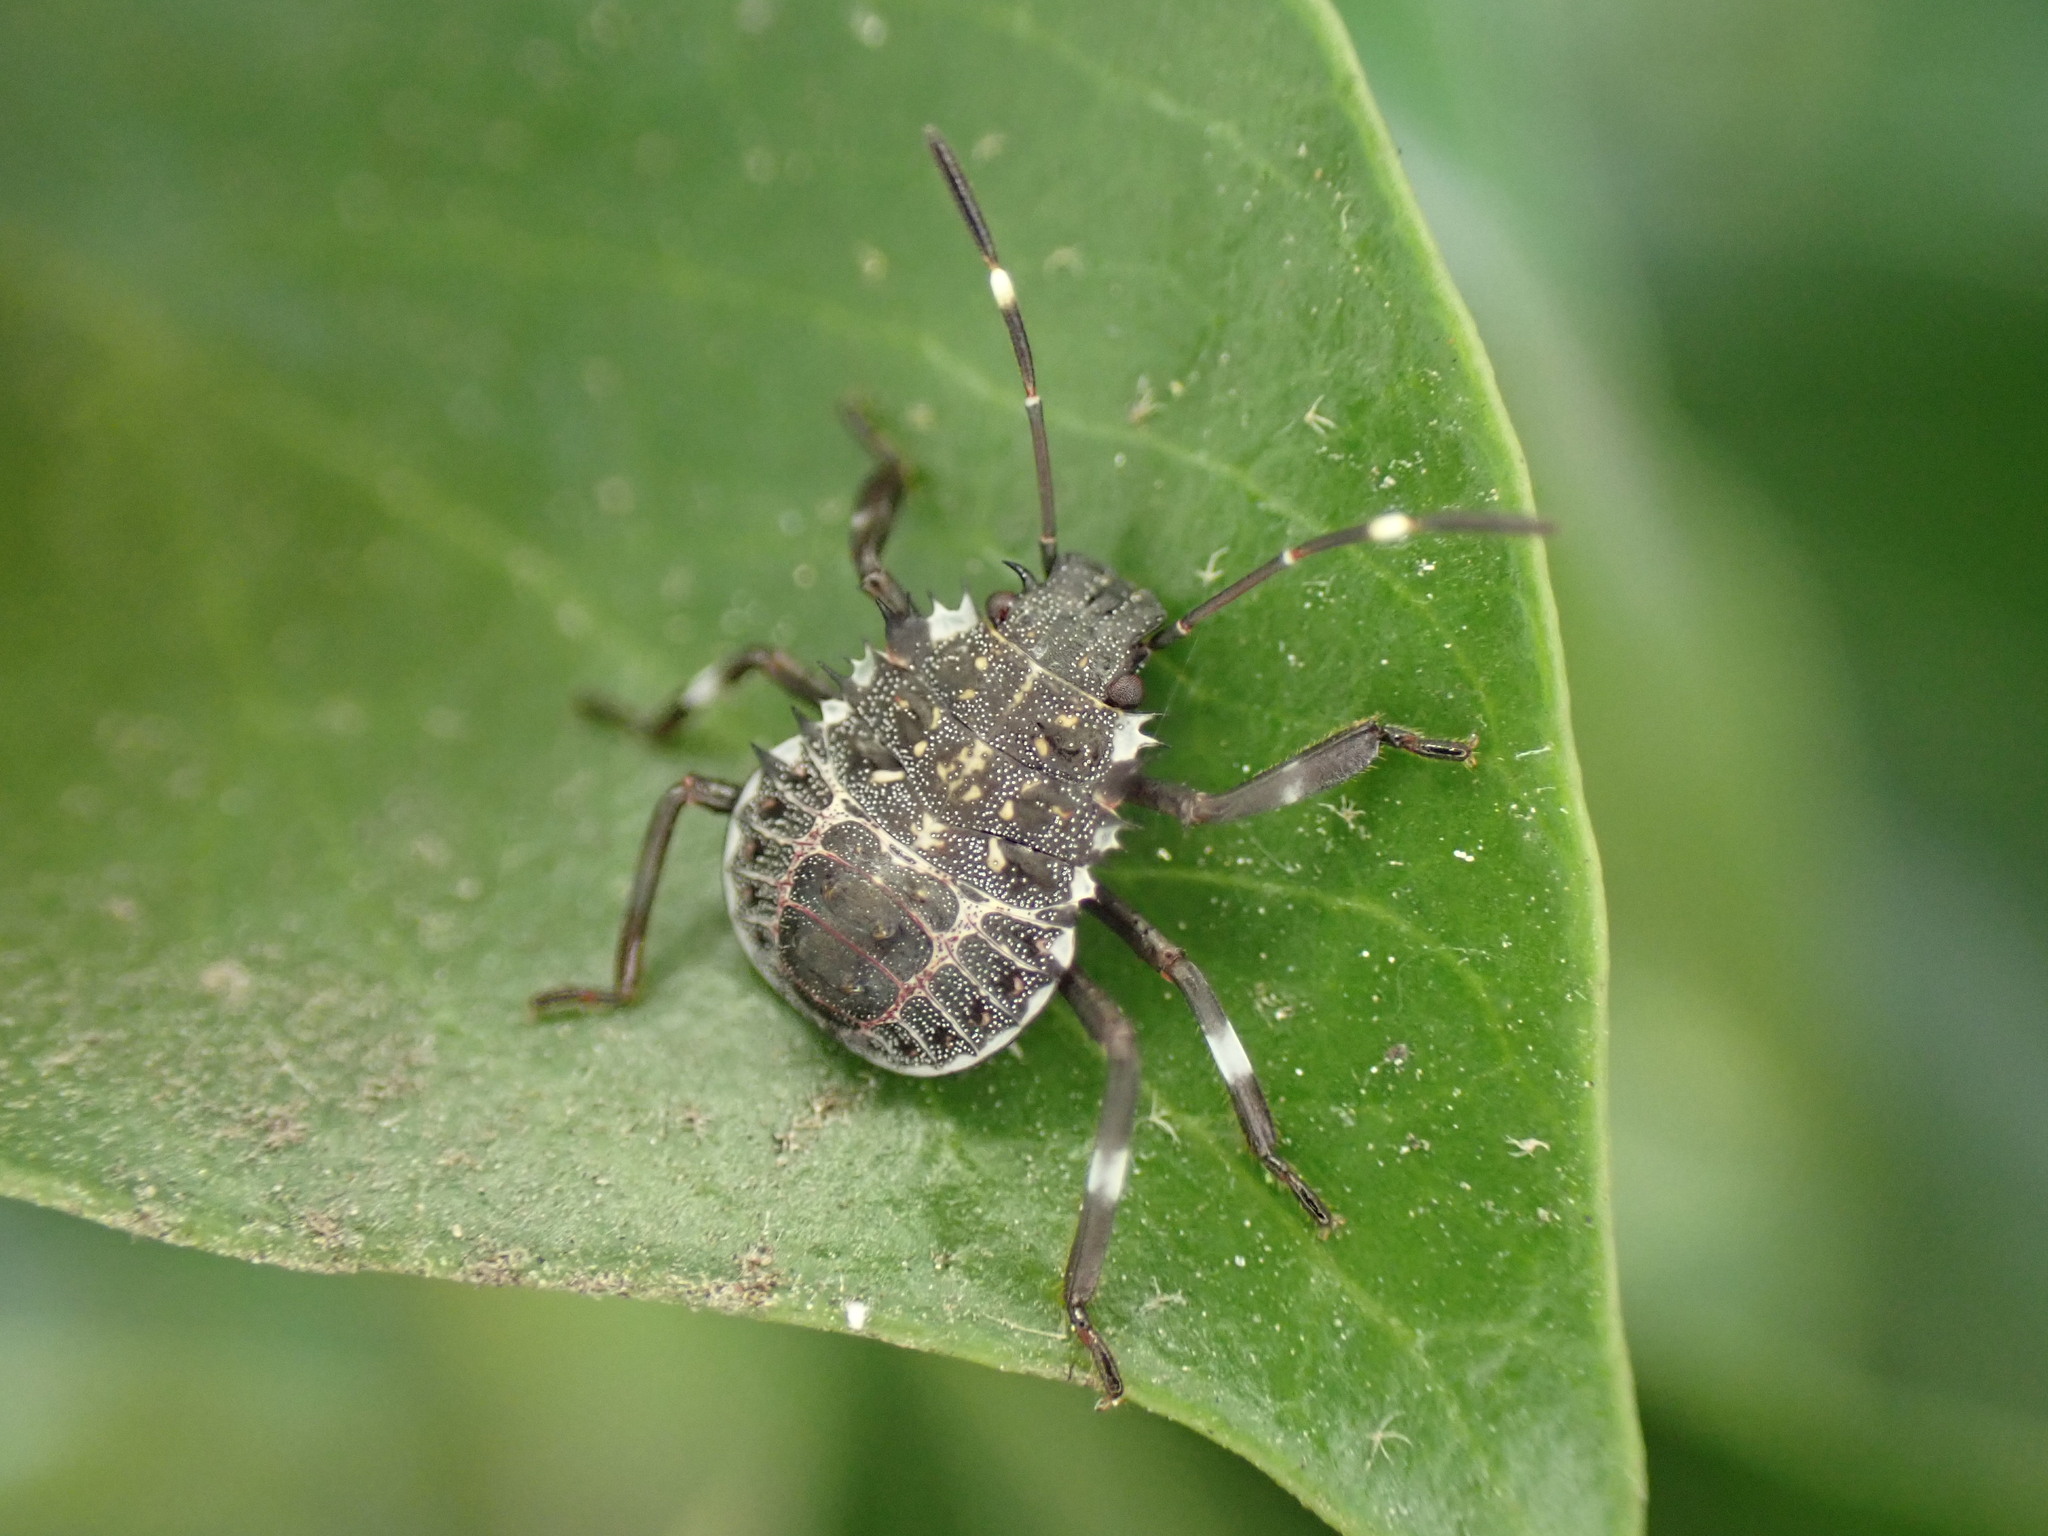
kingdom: Animalia
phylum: Arthropoda
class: Insecta
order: Hemiptera
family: Pentatomidae
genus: Halyomorpha
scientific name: Halyomorpha halys
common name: Brown marmorated stink bug
